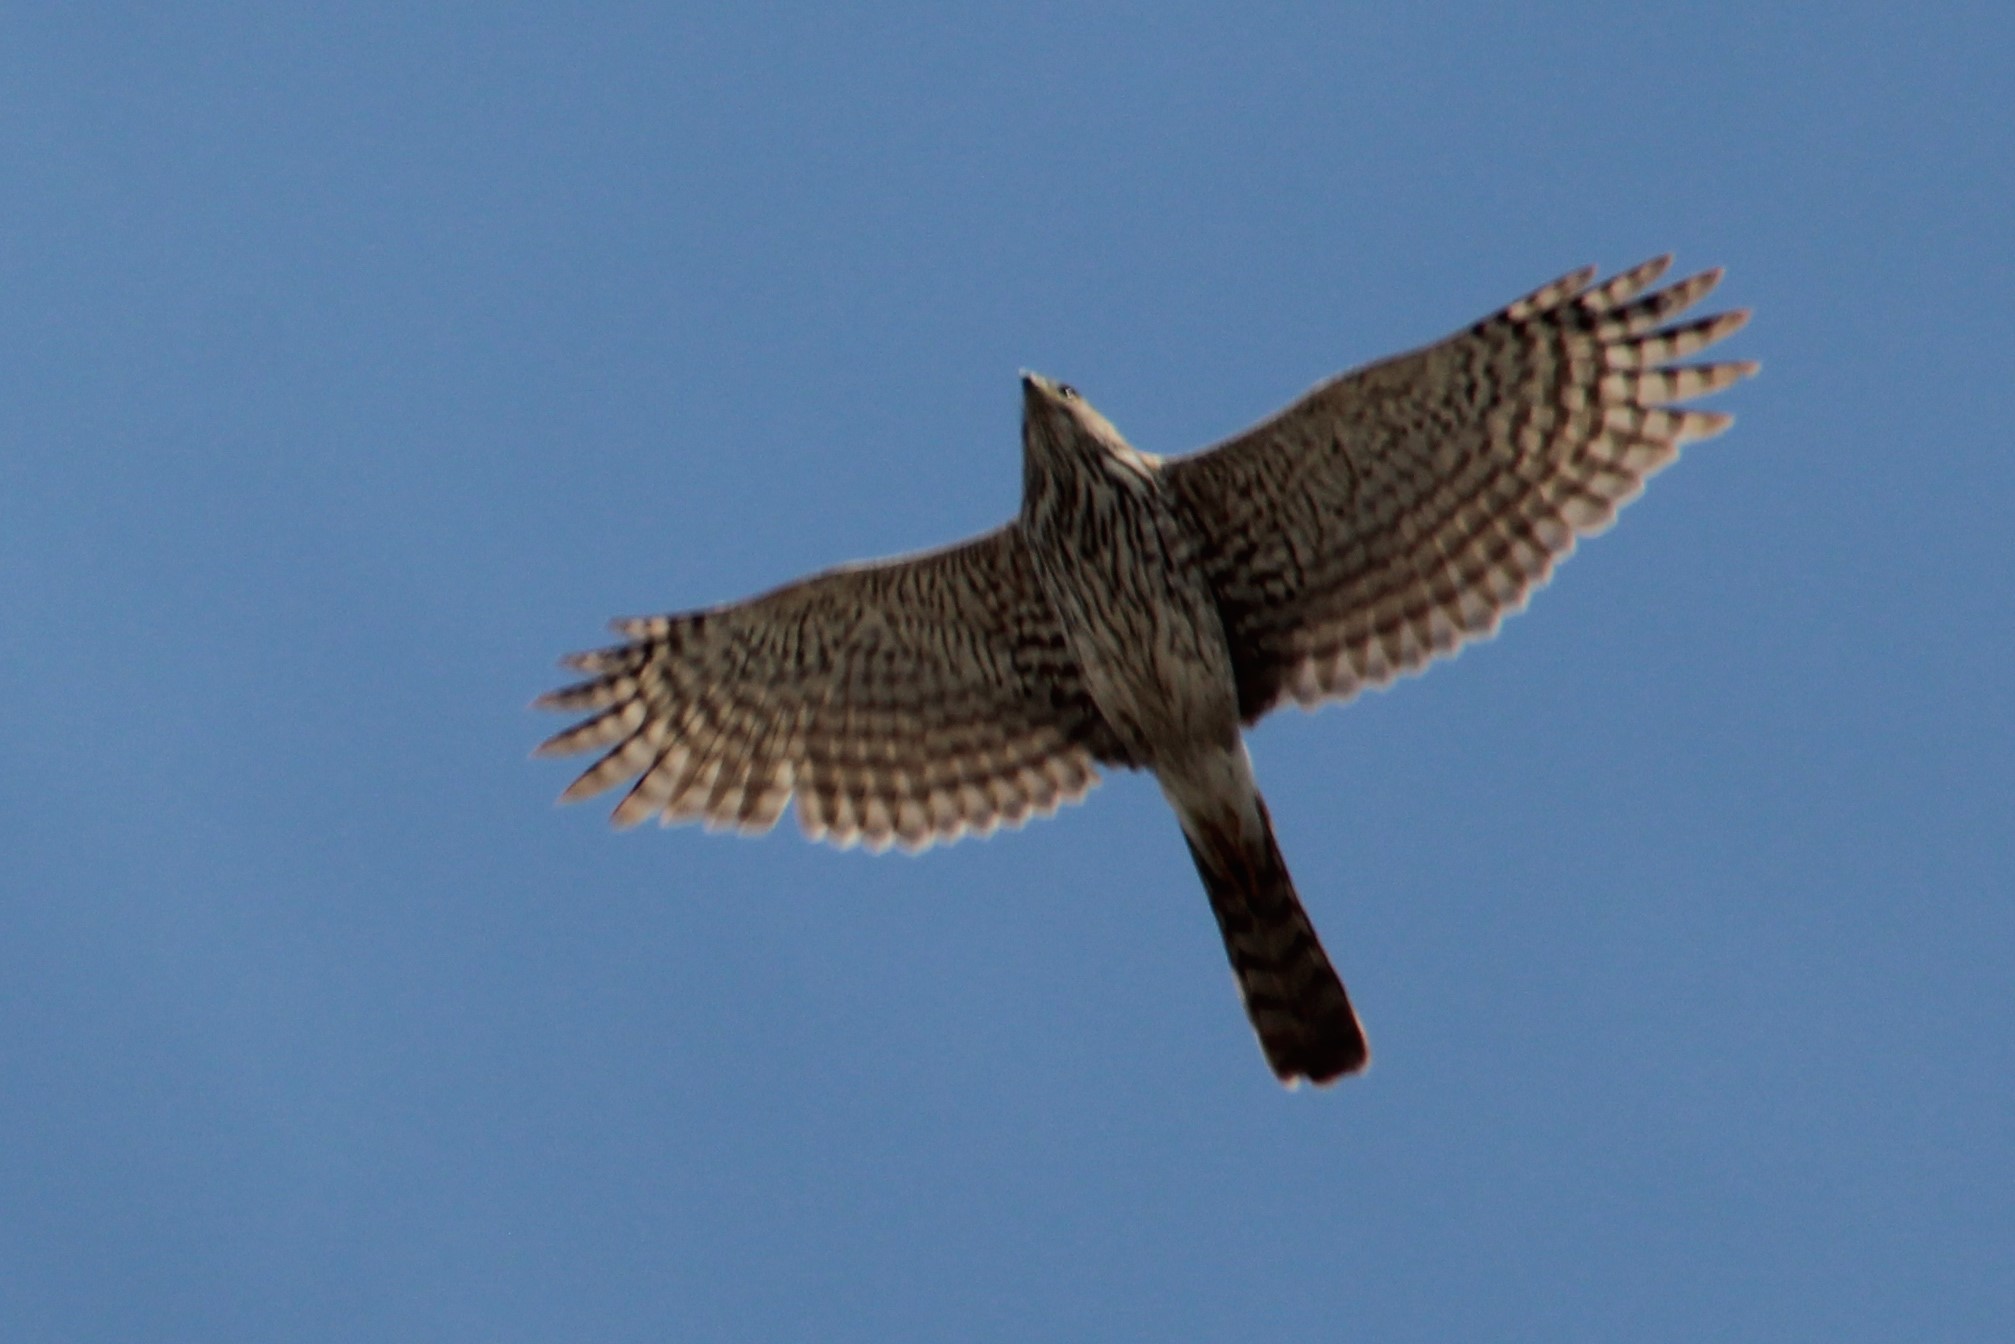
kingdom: Animalia
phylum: Chordata
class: Aves
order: Accipitriformes
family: Accipitridae
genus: Accipiter
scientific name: Accipiter cooperii
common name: Cooper's hawk
